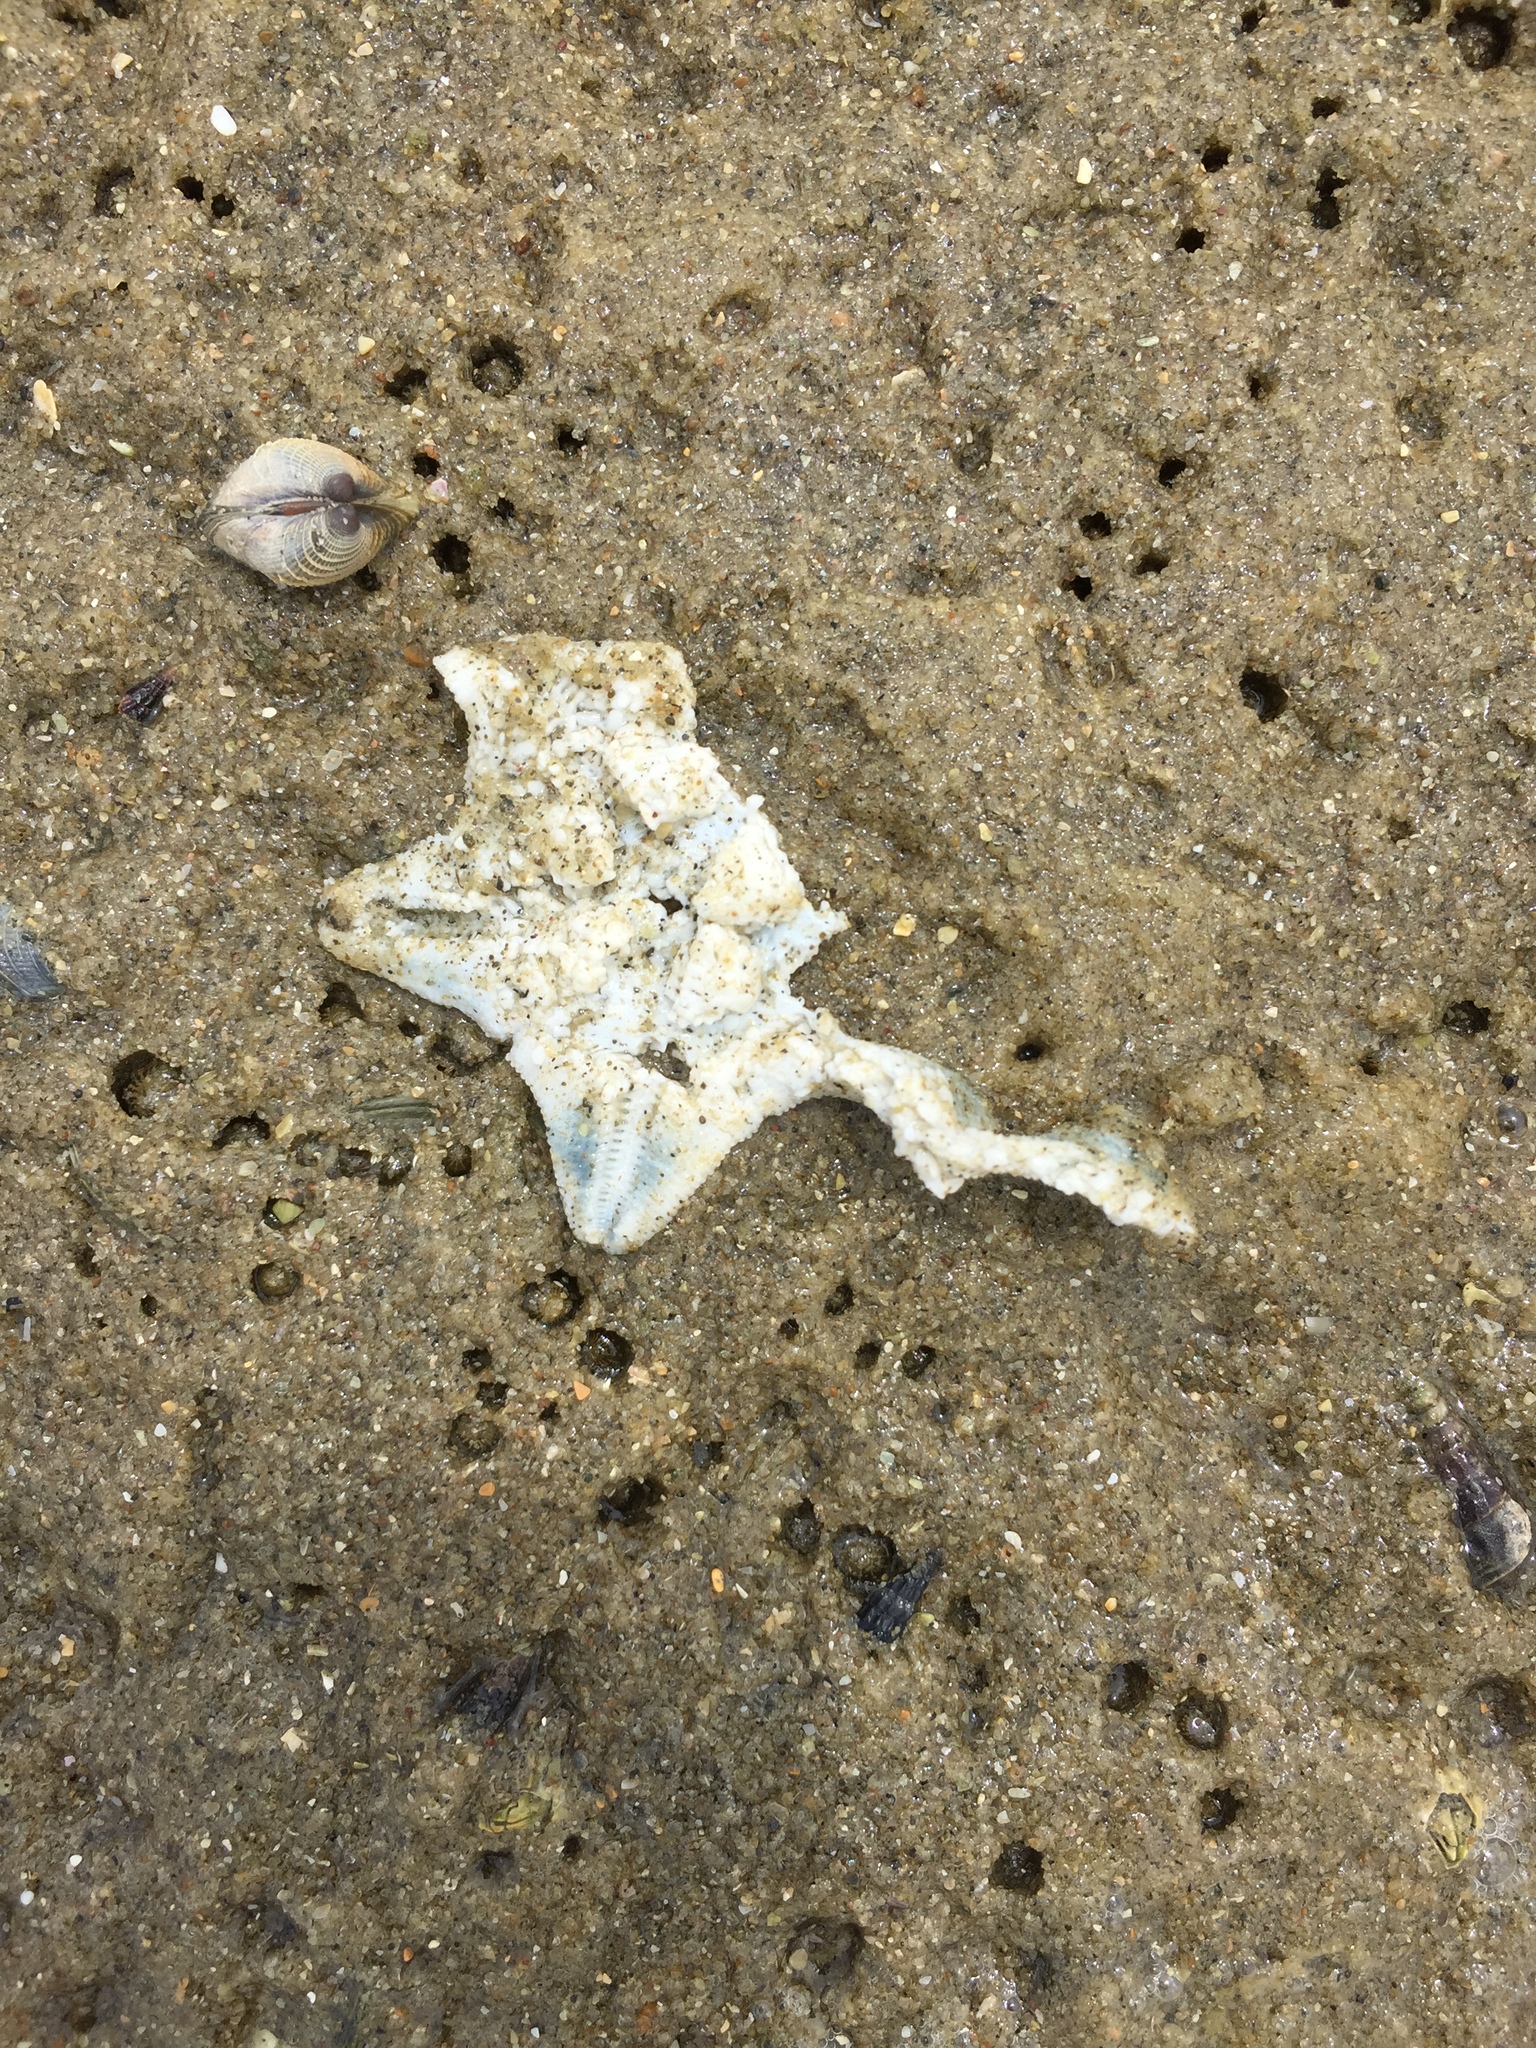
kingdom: Animalia
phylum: Echinodermata
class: Asteroidea
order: Valvatida
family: Asterinidae
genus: Patiriella
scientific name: Patiriella regularis
